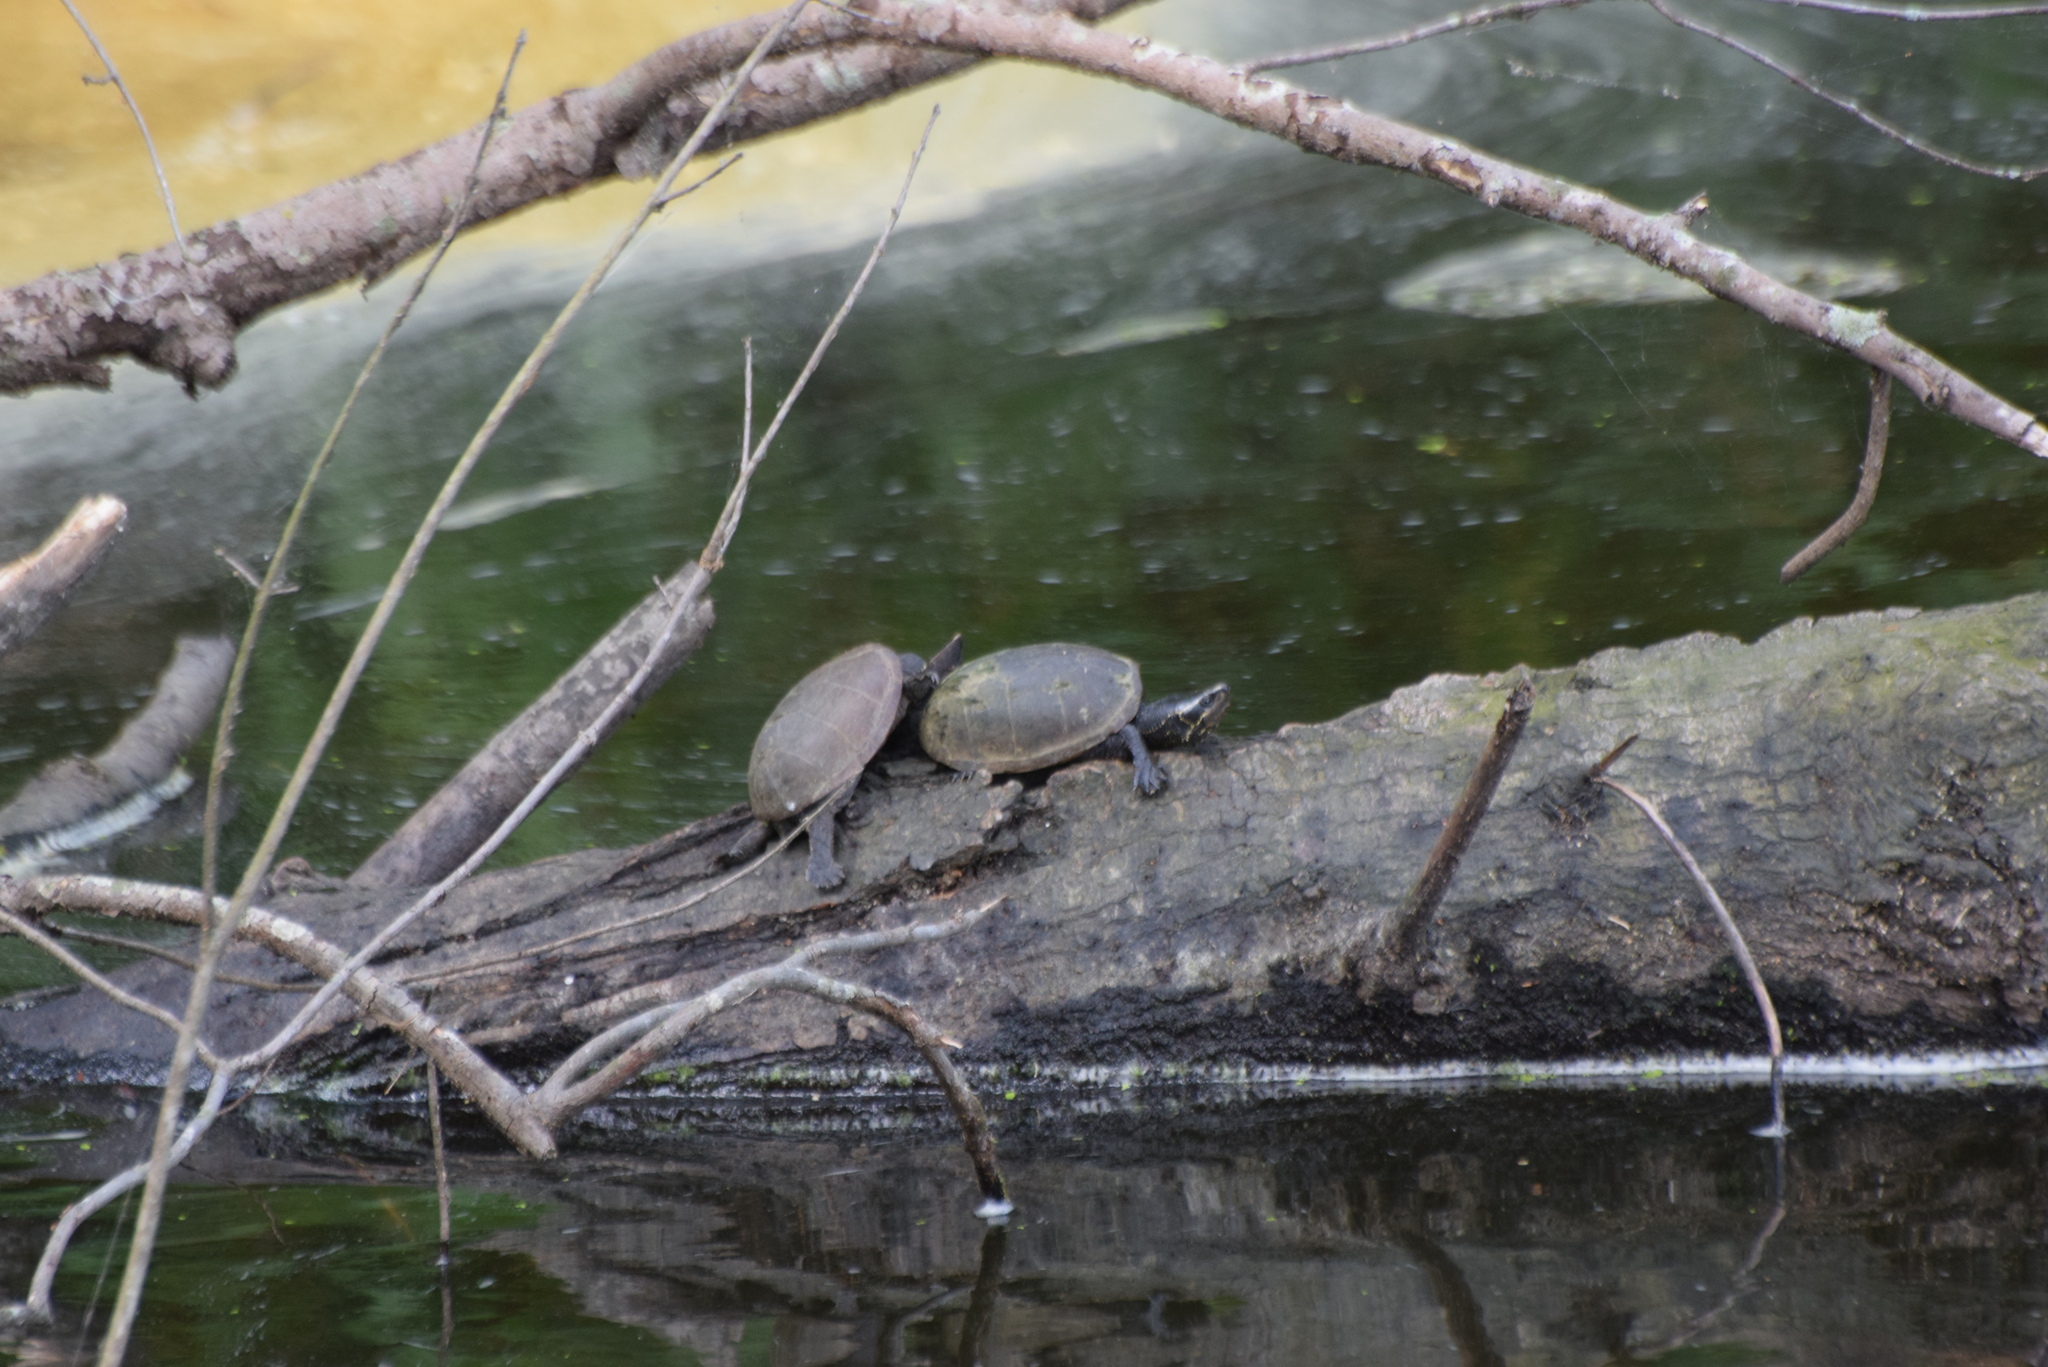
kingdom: Animalia
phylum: Chordata
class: Testudines
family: Kinosternidae
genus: Sternotherus
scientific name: Sternotherus odoratus
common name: Common musk turtle
